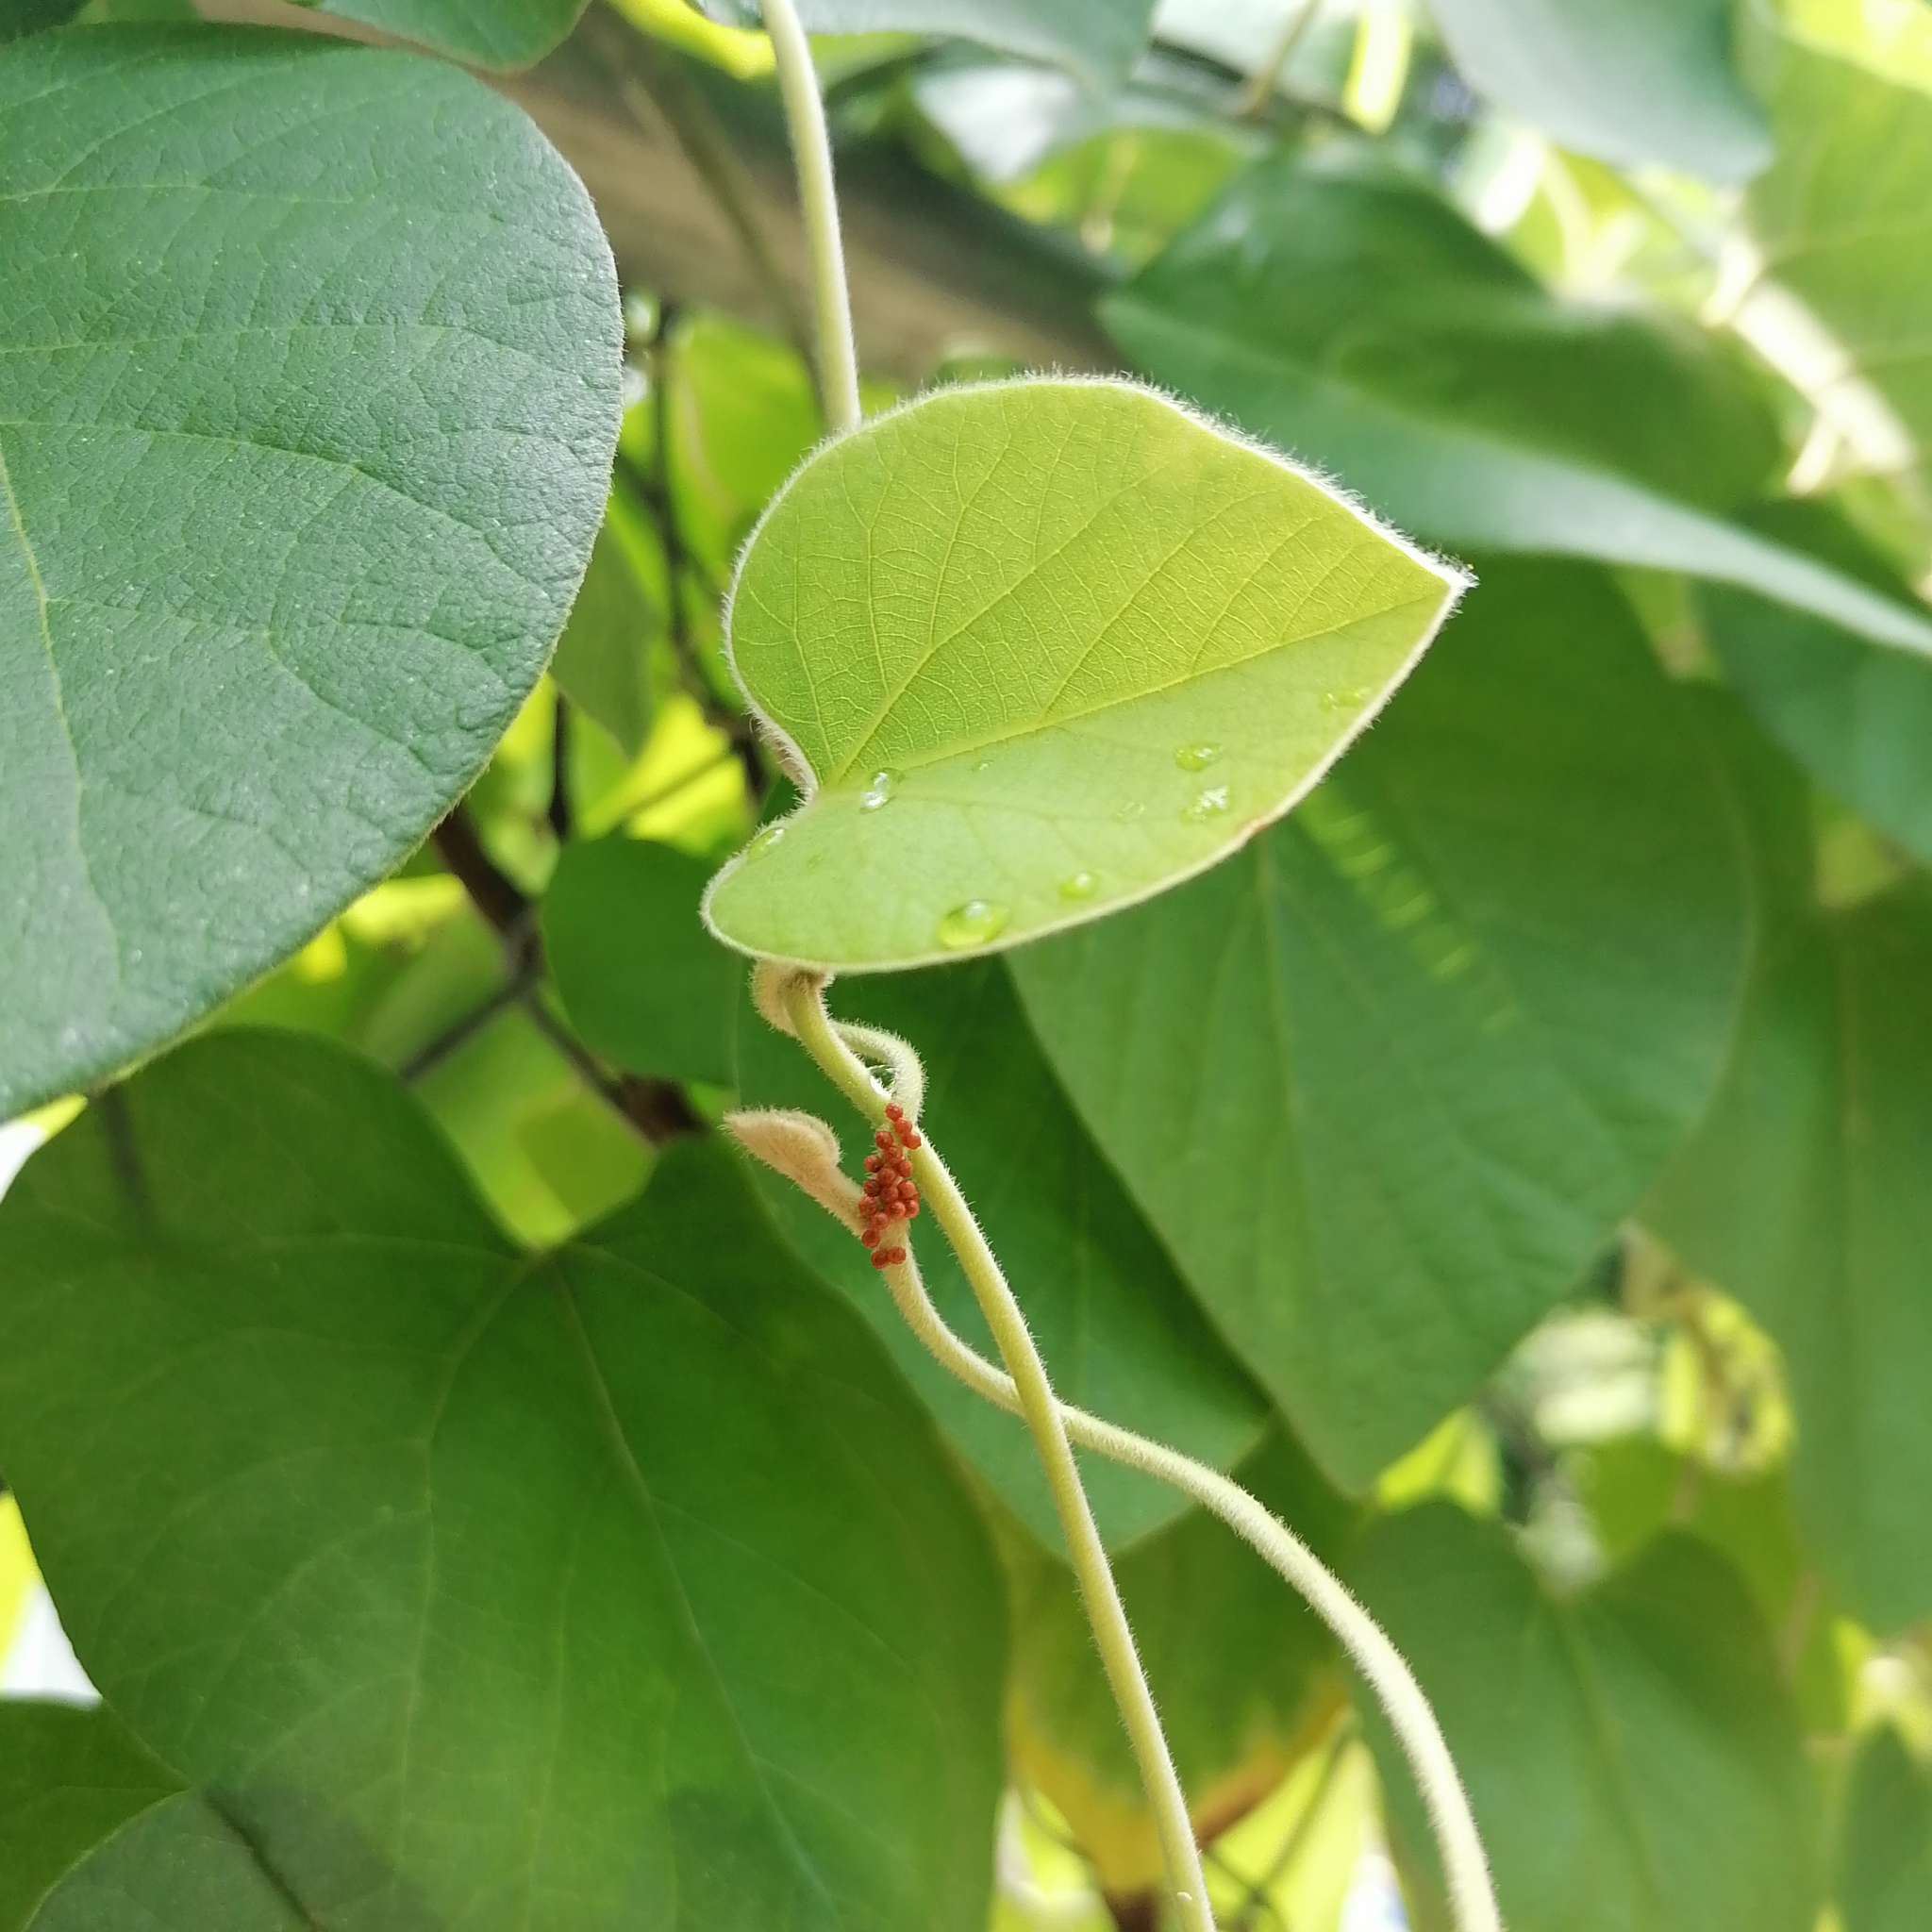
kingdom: Animalia
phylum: Arthropoda
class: Insecta
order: Lepidoptera
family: Papilionidae
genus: Battus
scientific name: Battus philenor
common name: Pipevine swallowtail
